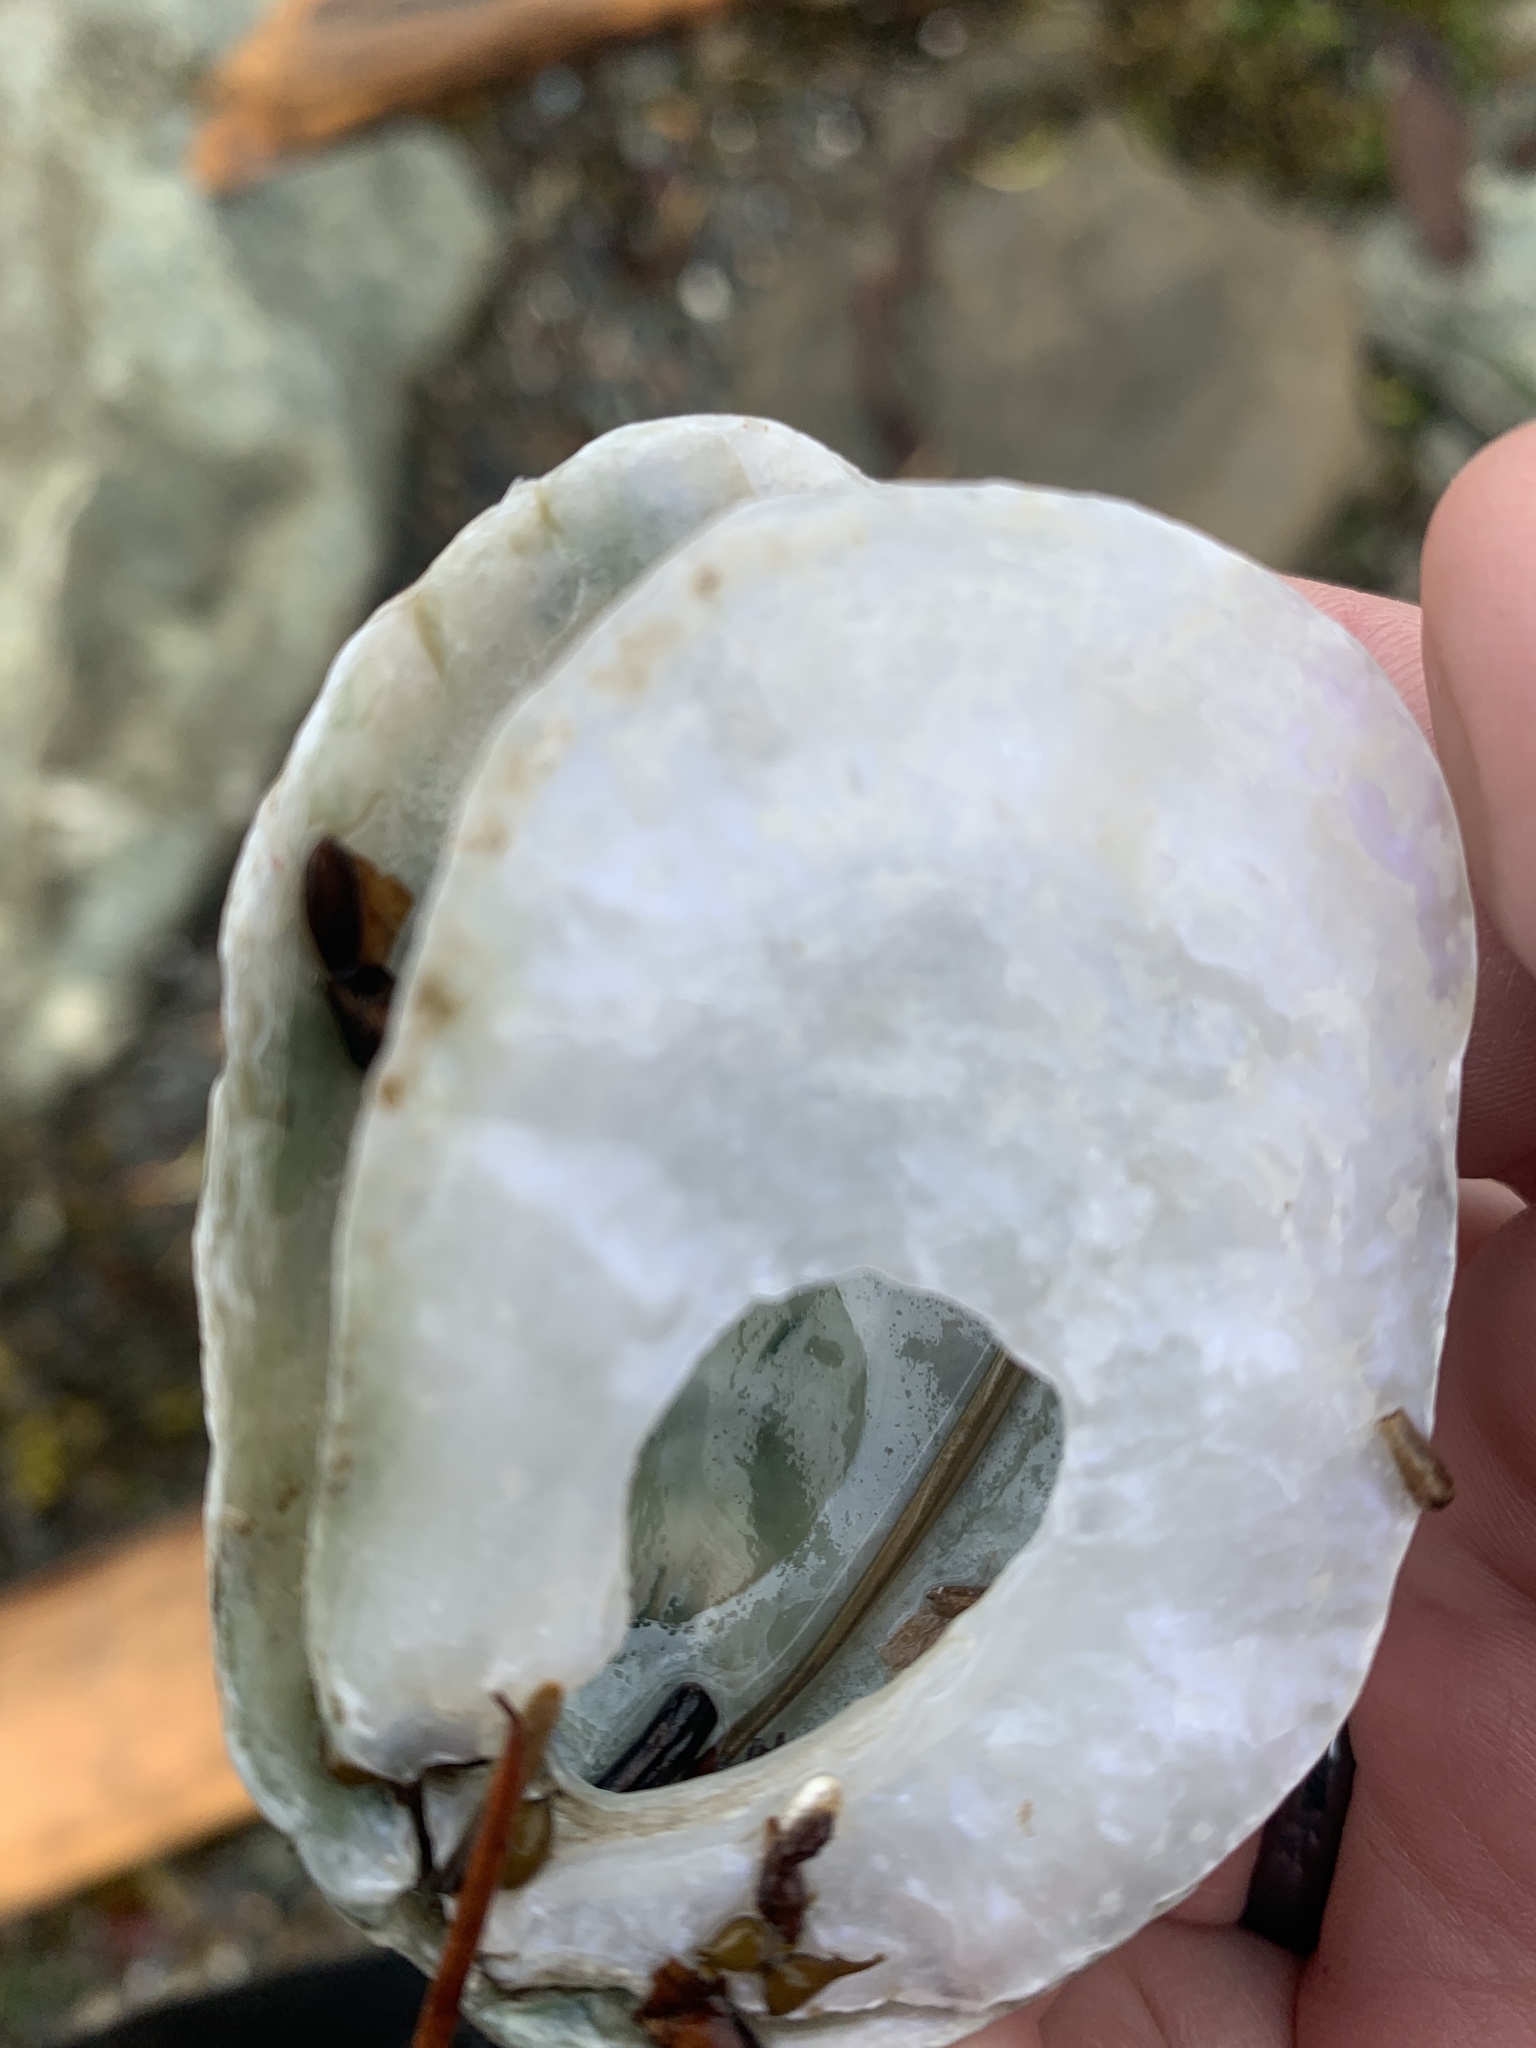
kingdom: Animalia
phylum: Mollusca
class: Bivalvia
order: Pectinida
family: Anomiidae
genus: Pododesmus
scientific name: Pododesmus macrochisma
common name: Alaska jingle
